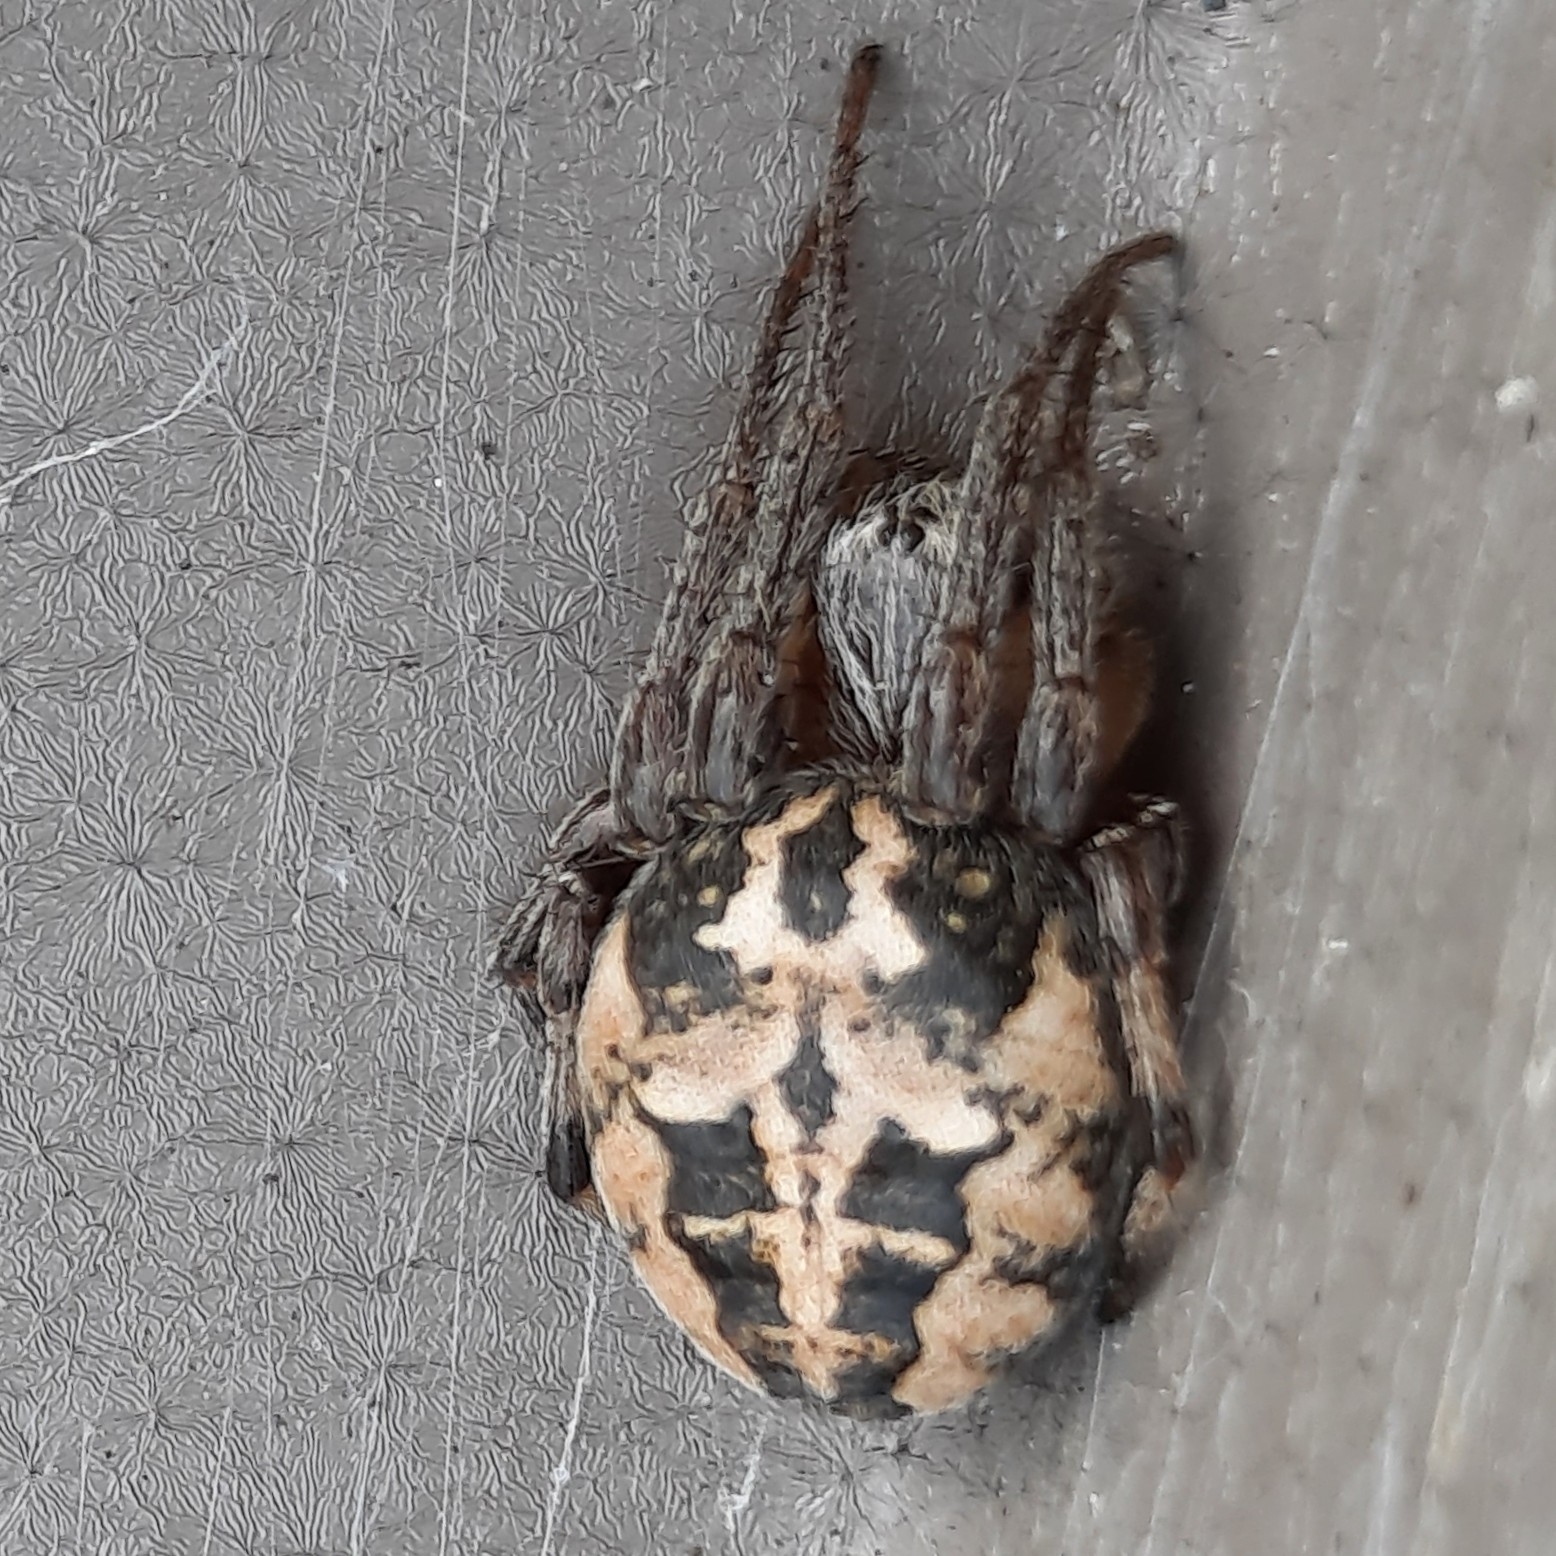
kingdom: Animalia
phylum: Arthropoda
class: Arachnida
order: Araneae
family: Araneidae
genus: Larinioides
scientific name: Larinioides cornutus
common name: Furrow orbweaver
